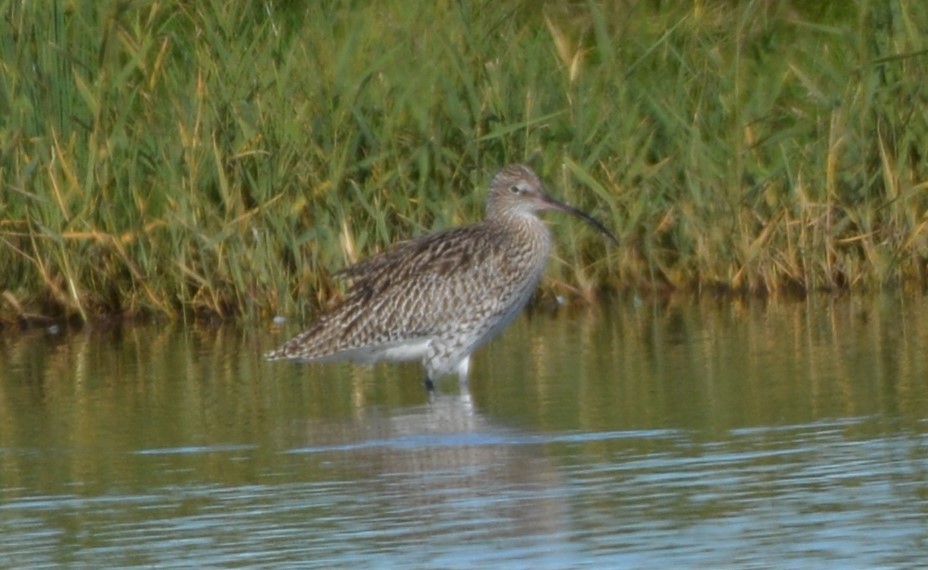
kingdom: Animalia
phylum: Chordata
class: Aves
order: Charadriiformes
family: Scolopacidae
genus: Numenius
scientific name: Numenius arquata
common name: Eurasian curlew
